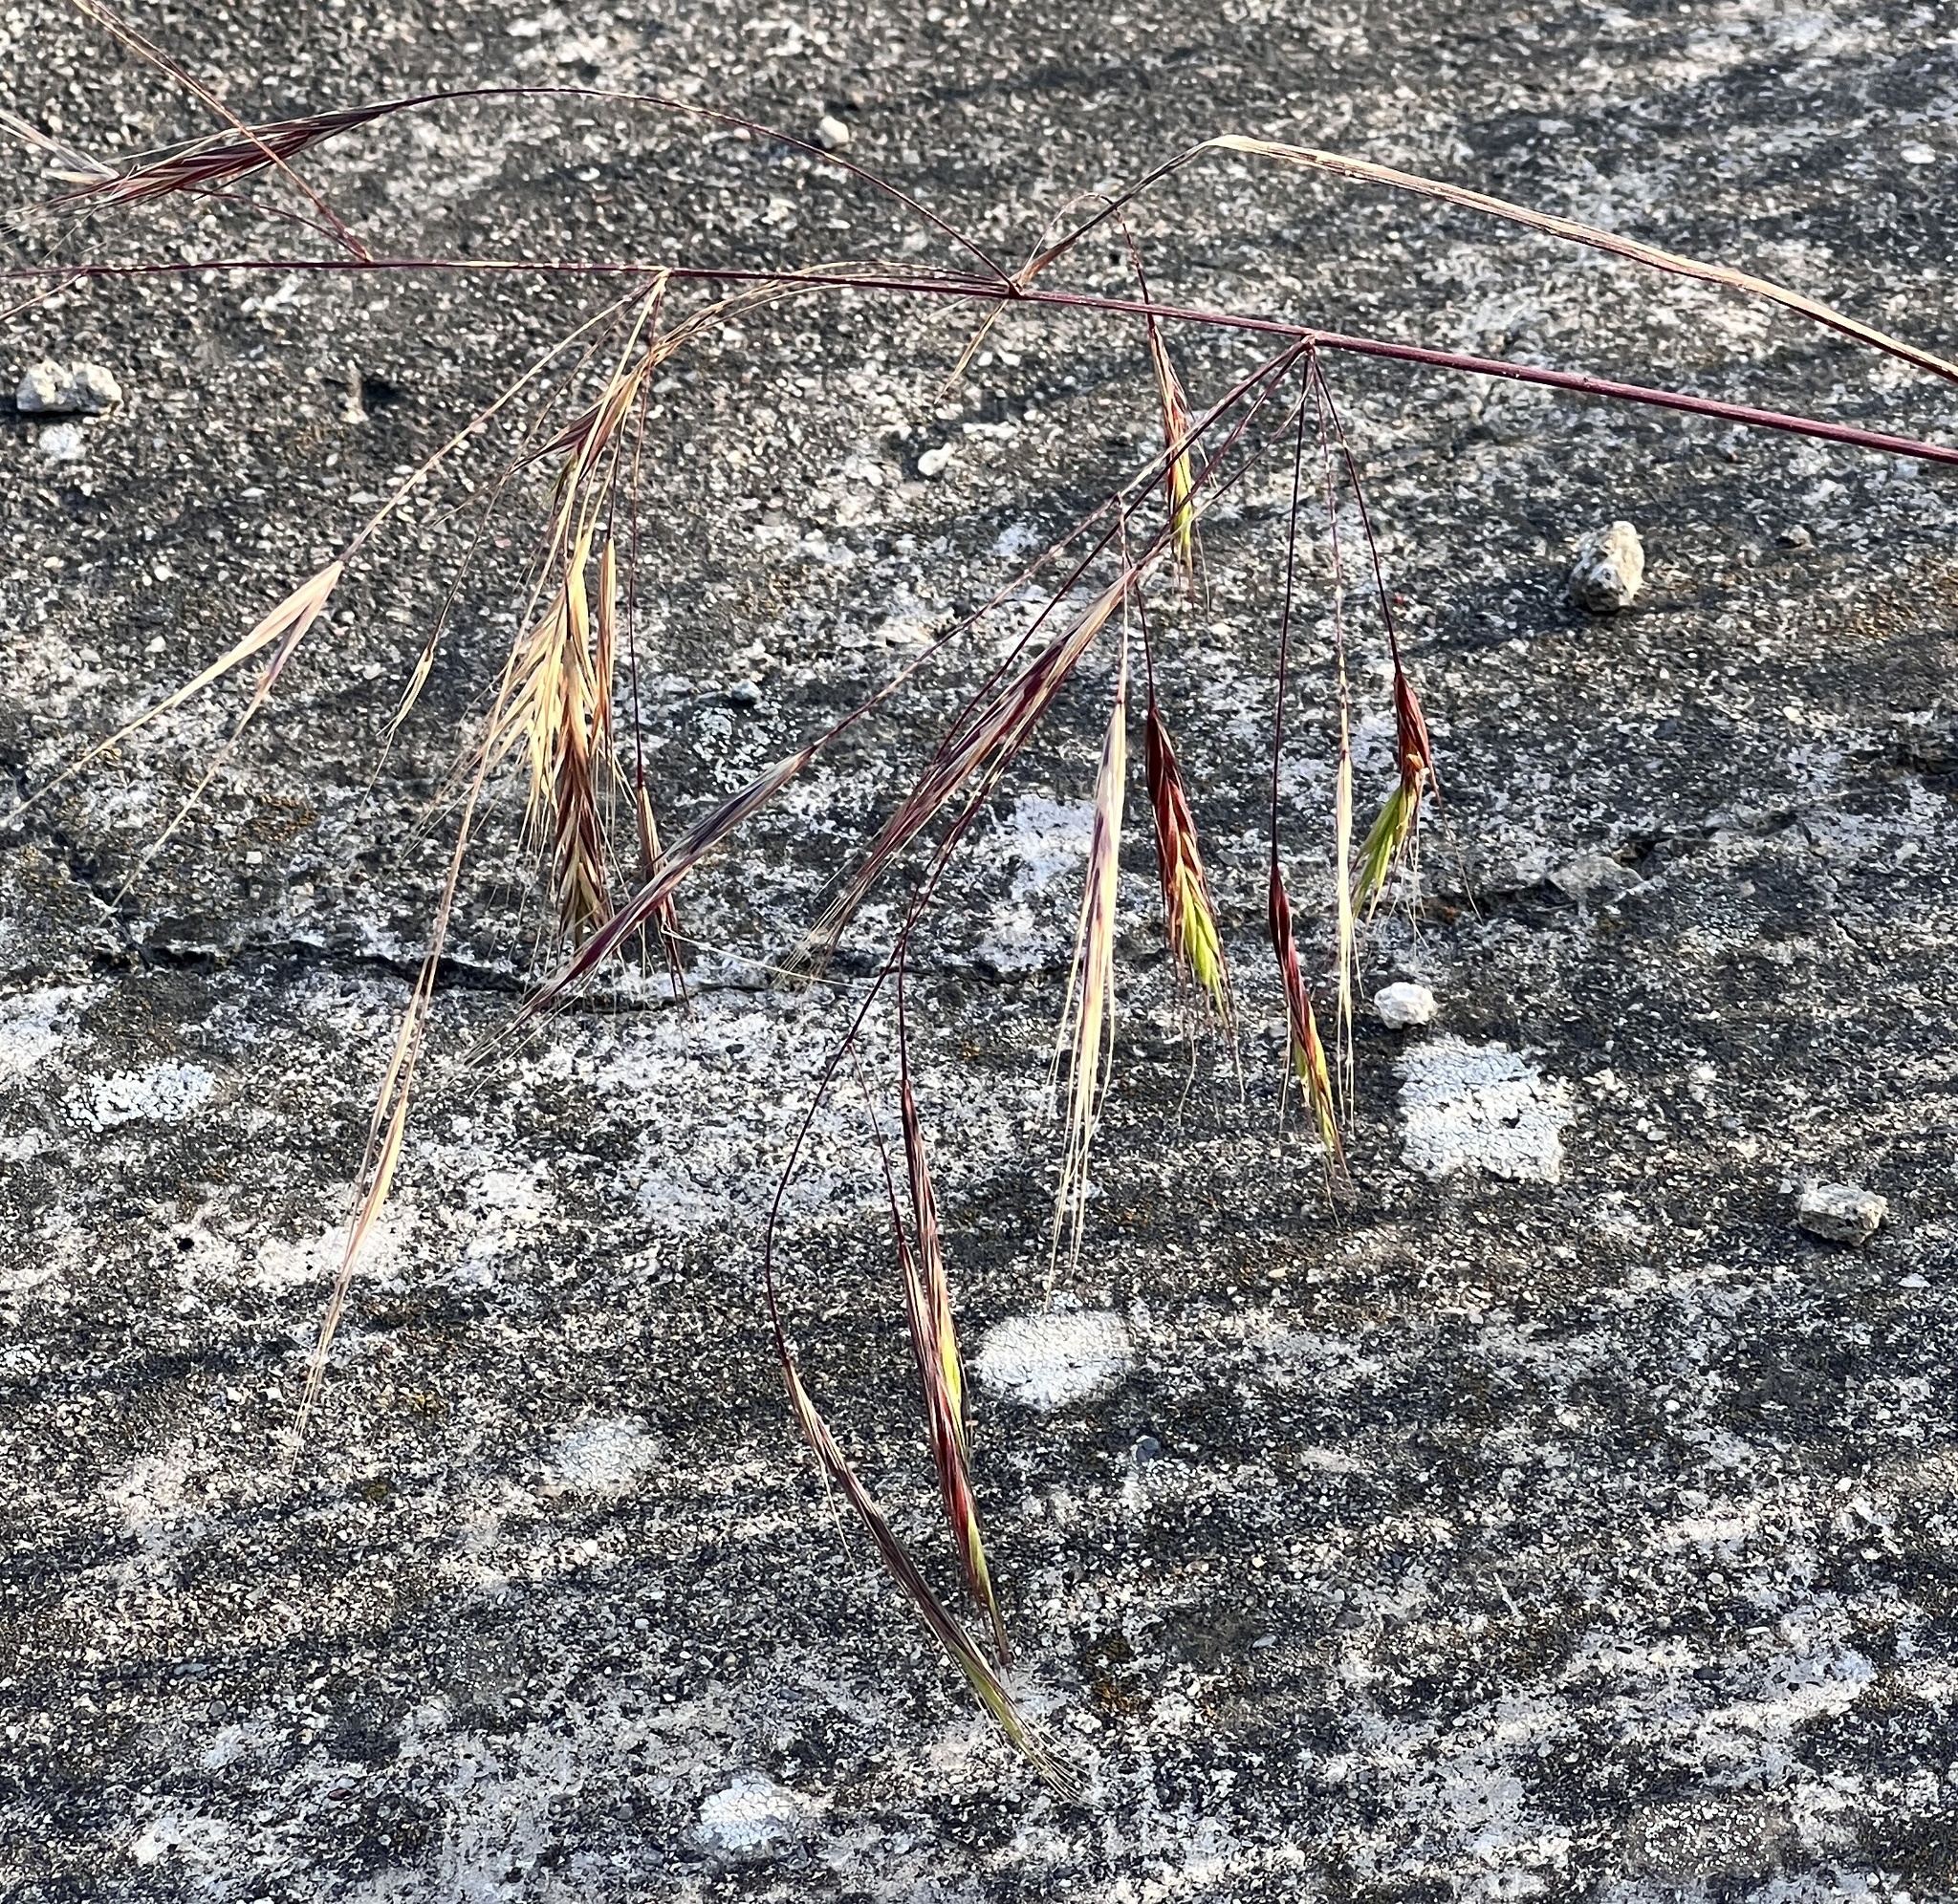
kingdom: Plantae
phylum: Tracheophyta
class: Liliopsida
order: Poales
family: Poaceae
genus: Bromus
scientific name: Bromus sterilis
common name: Poverty brome
